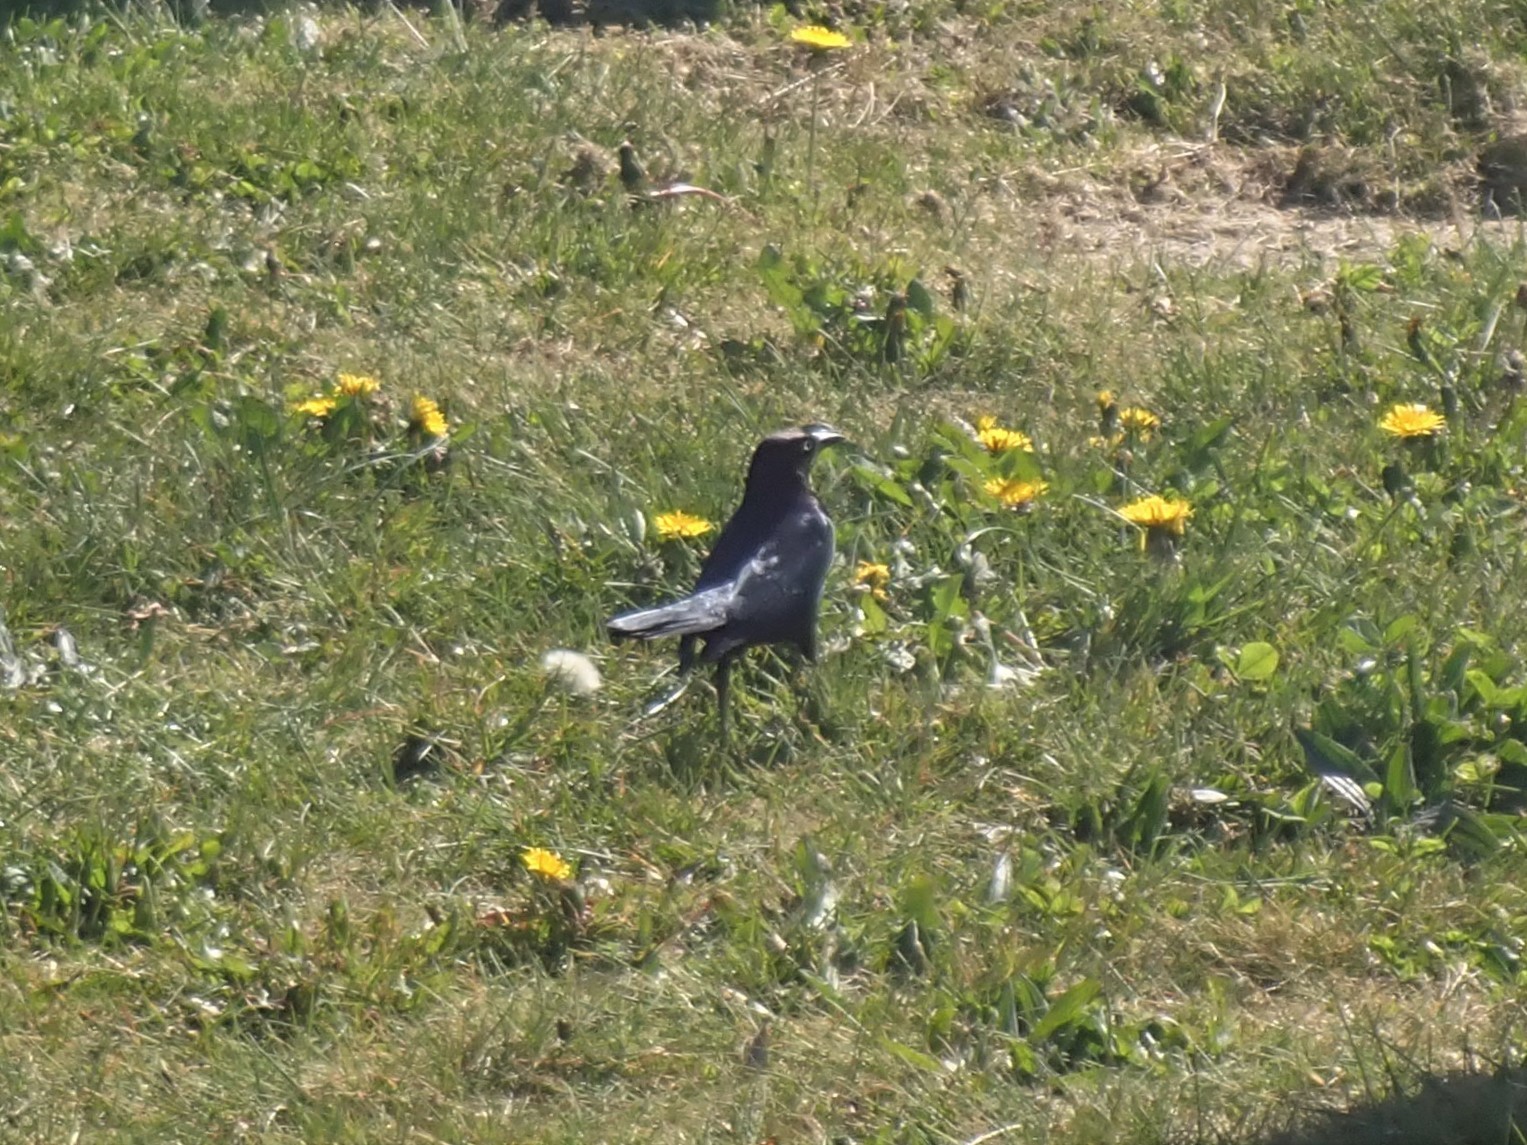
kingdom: Animalia
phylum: Chordata
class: Aves
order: Passeriformes
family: Icteridae
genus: Euphagus
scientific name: Euphagus cyanocephalus
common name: Brewer's blackbird
